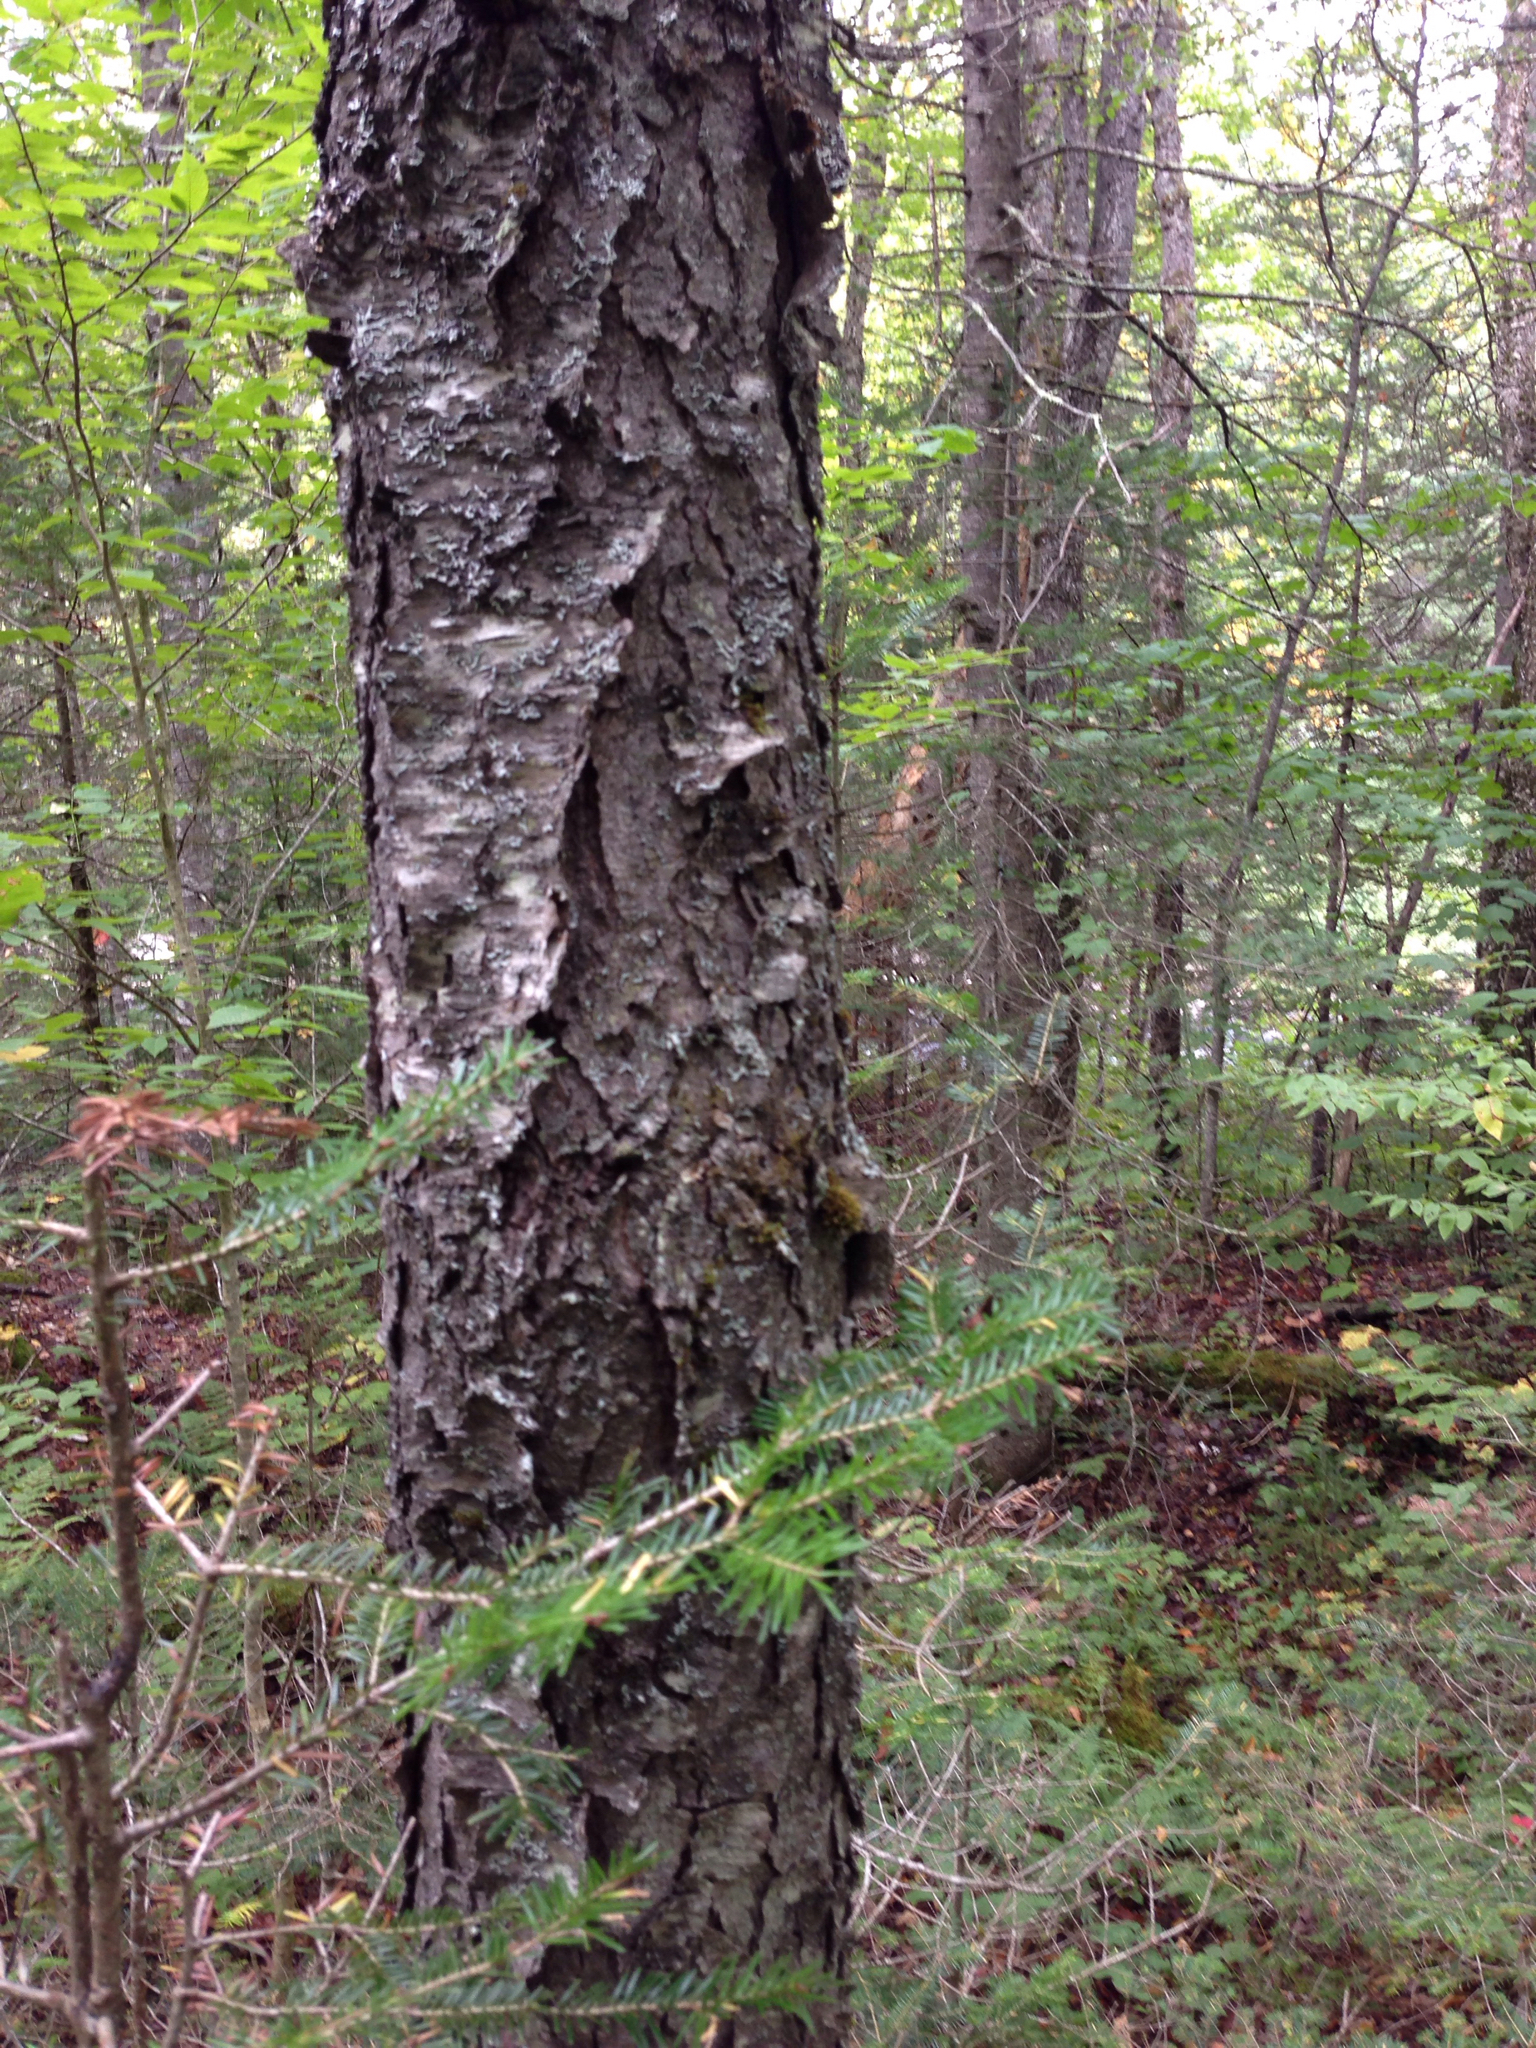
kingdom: Plantae
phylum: Tracheophyta
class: Magnoliopsida
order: Rosales
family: Rosaceae
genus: Prunus
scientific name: Prunus serotina
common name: Black cherry
